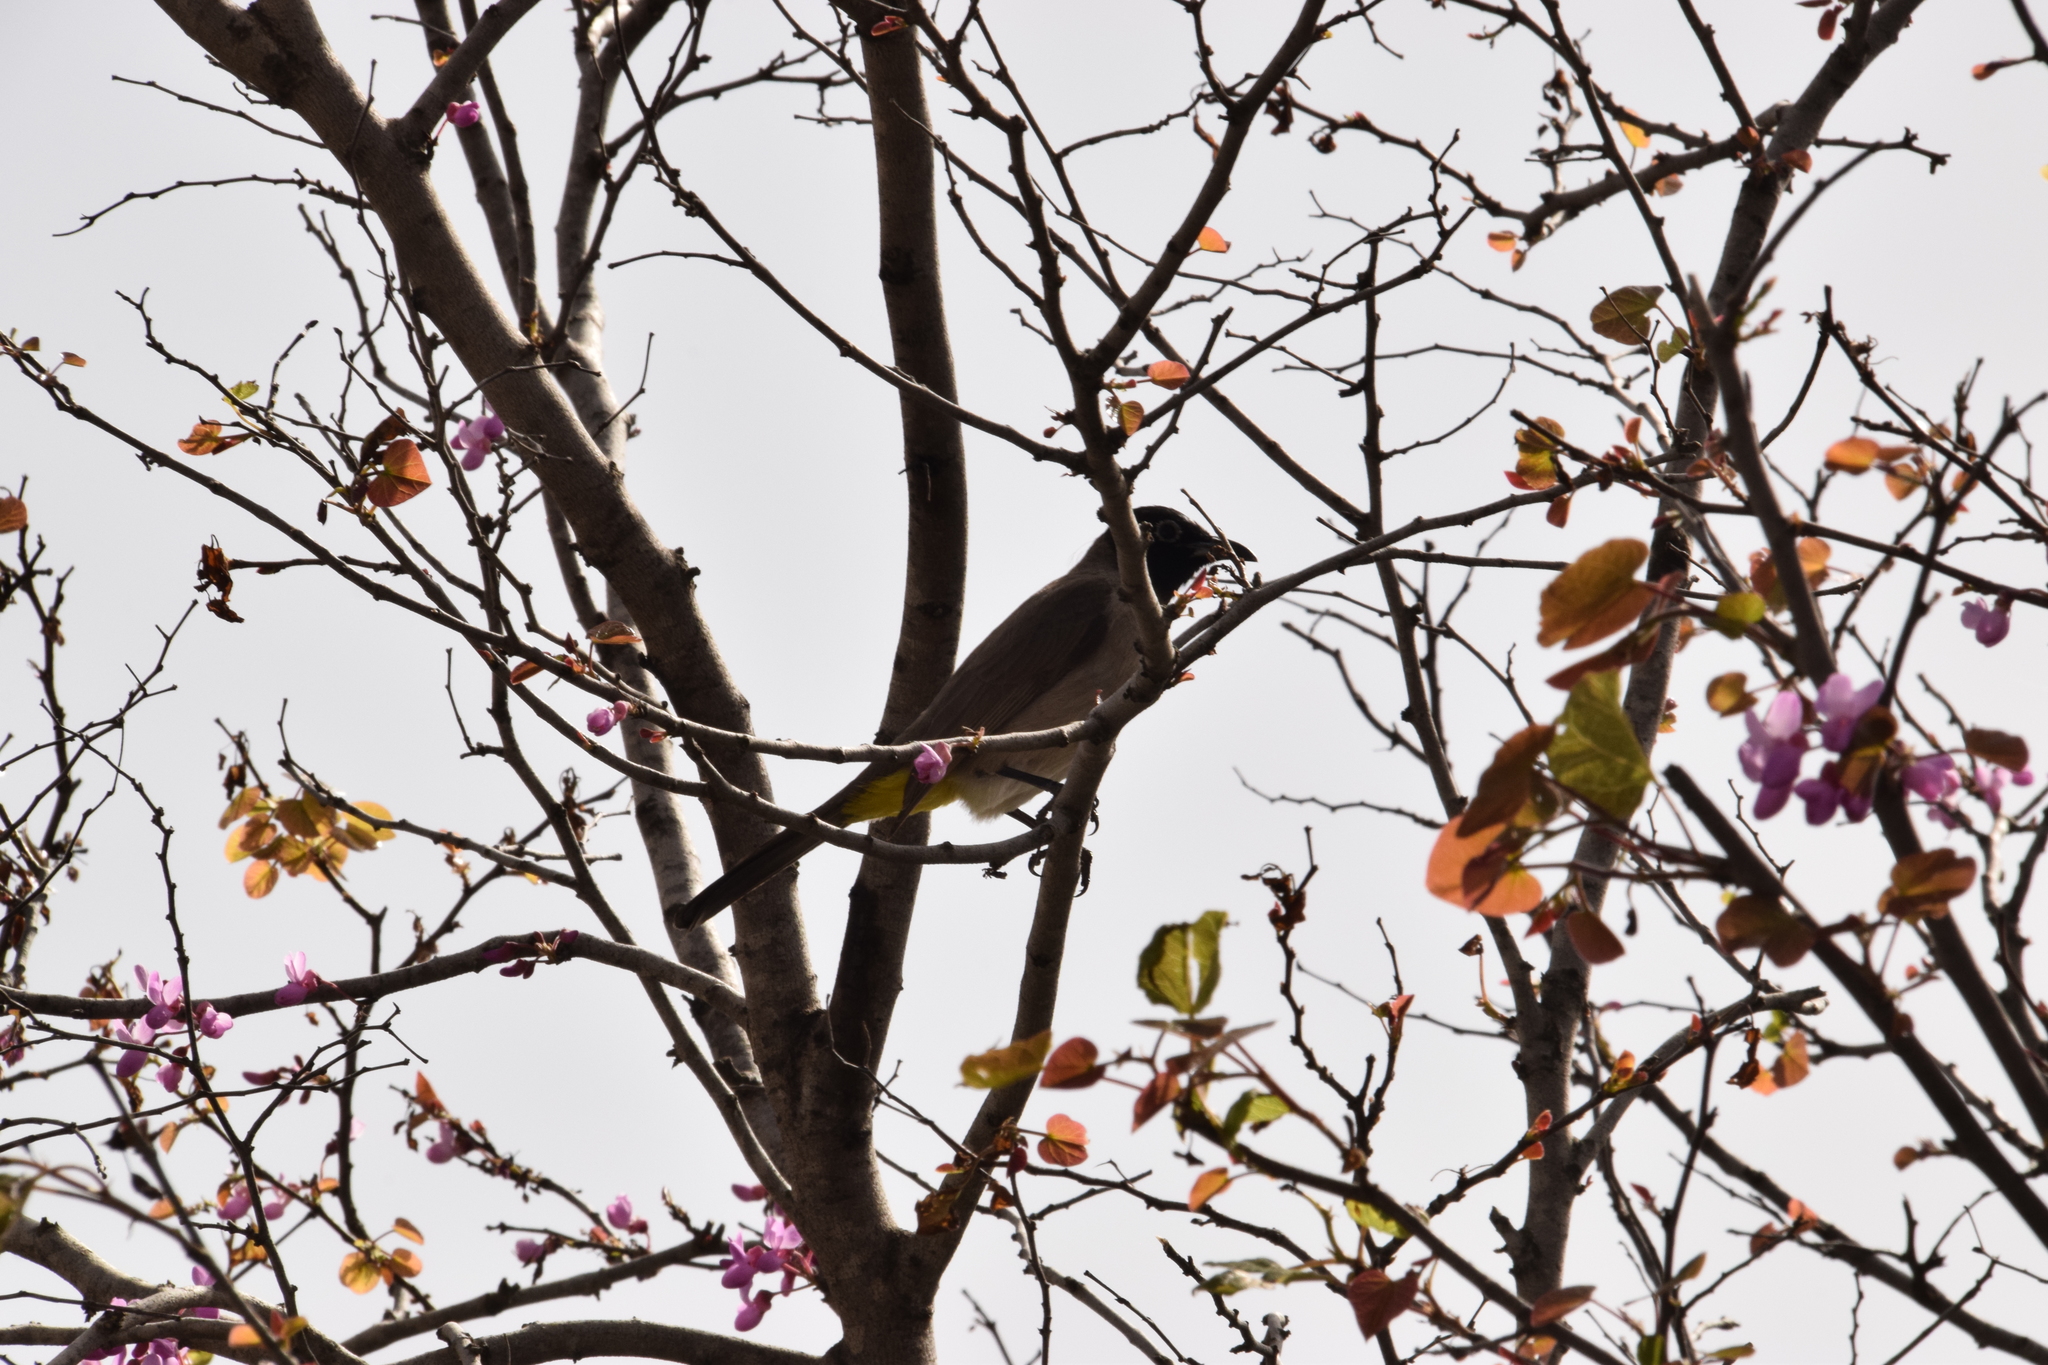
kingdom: Animalia
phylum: Chordata
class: Aves
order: Passeriformes
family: Pycnonotidae
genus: Pycnonotus
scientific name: Pycnonotus xanthopygos
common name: White-spectacled bulbul
